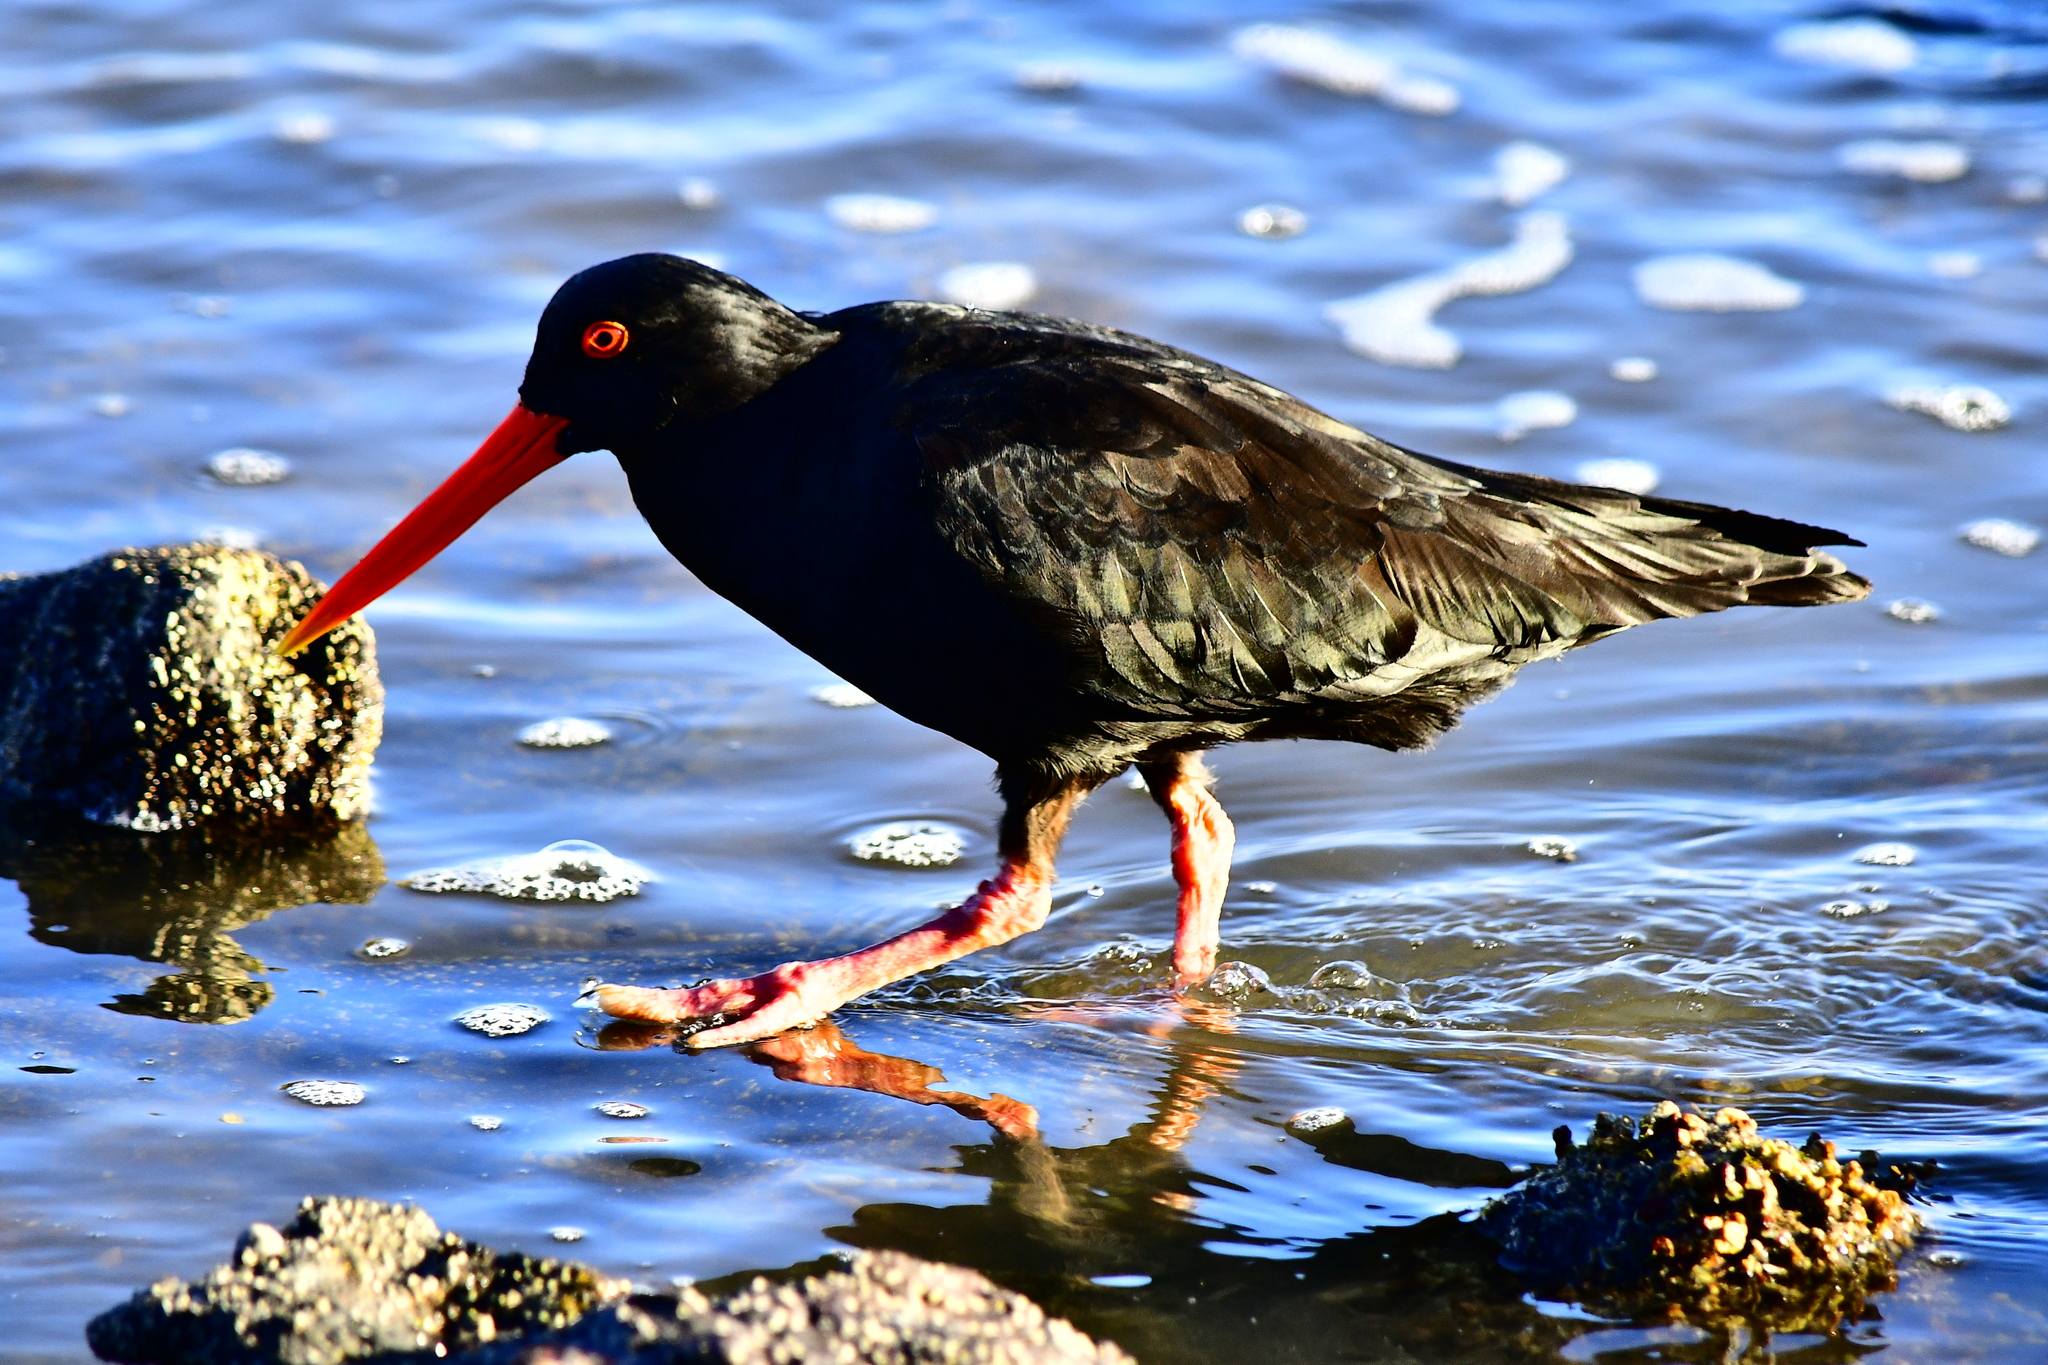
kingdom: Animalia
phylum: Chordata
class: Aves
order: Charadriiformes
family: Haematopodidae
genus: Haematopus
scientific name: Haematopus unicolor
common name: Variable oystercatcher
